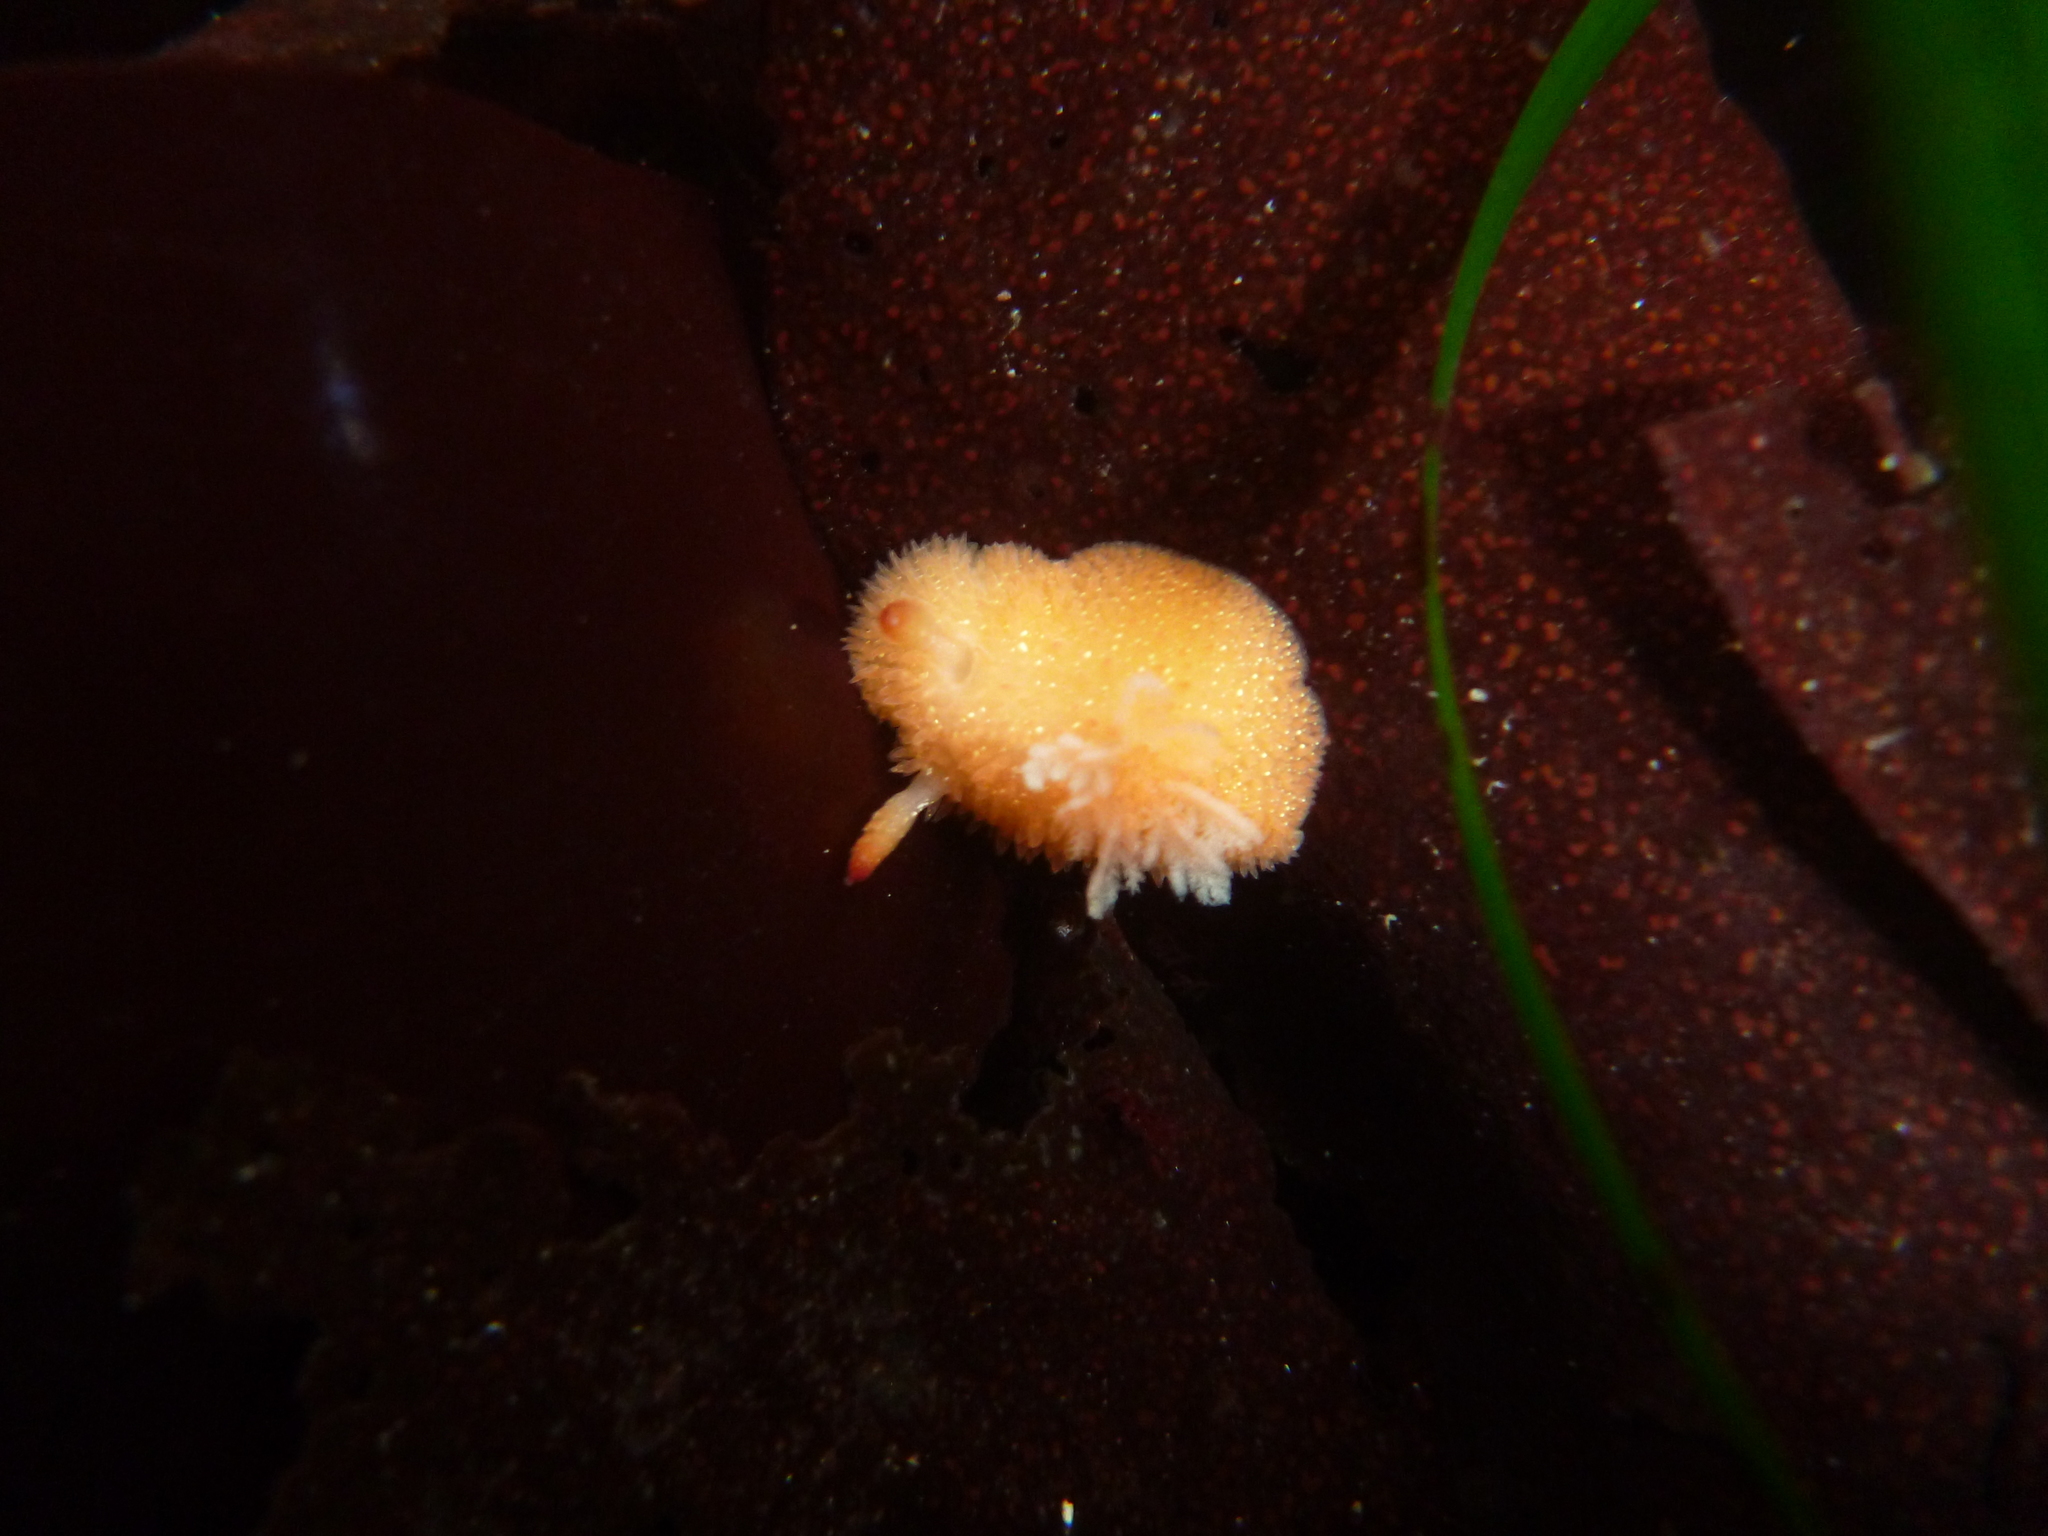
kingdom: Animalia
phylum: Mollusca
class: Gastropoda
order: Nudibranchia
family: Onchidorididae
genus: Acanthodoris
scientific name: Acanthodoris lutea
